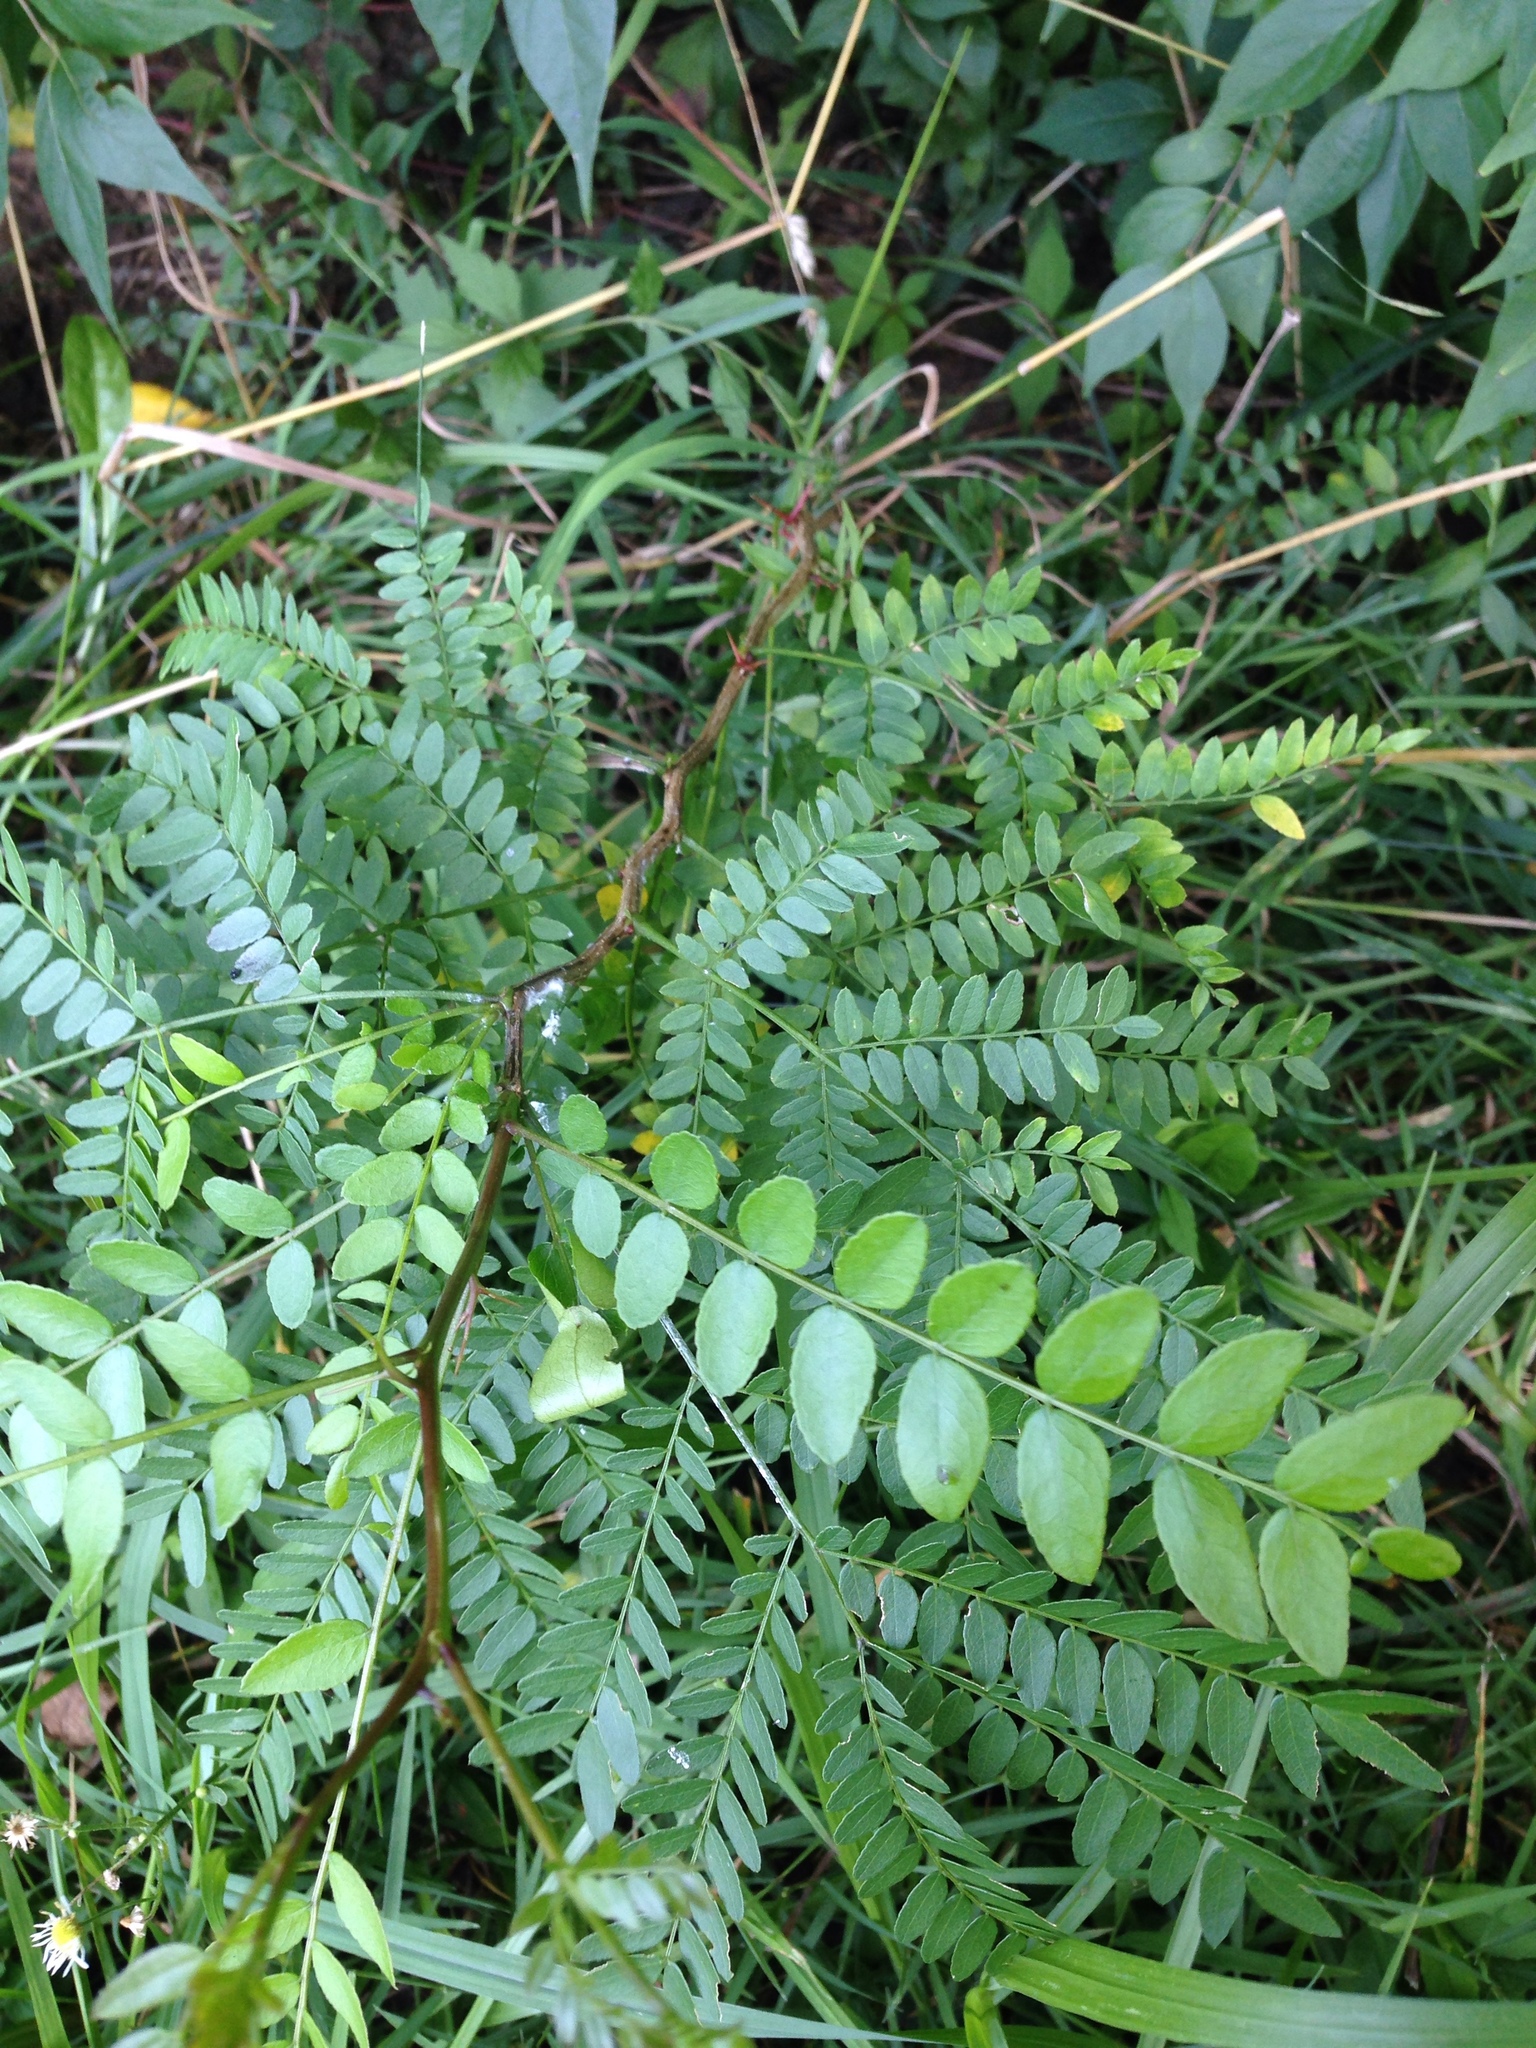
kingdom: Plantae
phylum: Tracheophyta
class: Magnoliopsida
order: Fabales
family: Fabaceae
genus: Gleditsia
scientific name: Gleditsia triacanthos
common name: Common honeylocust
